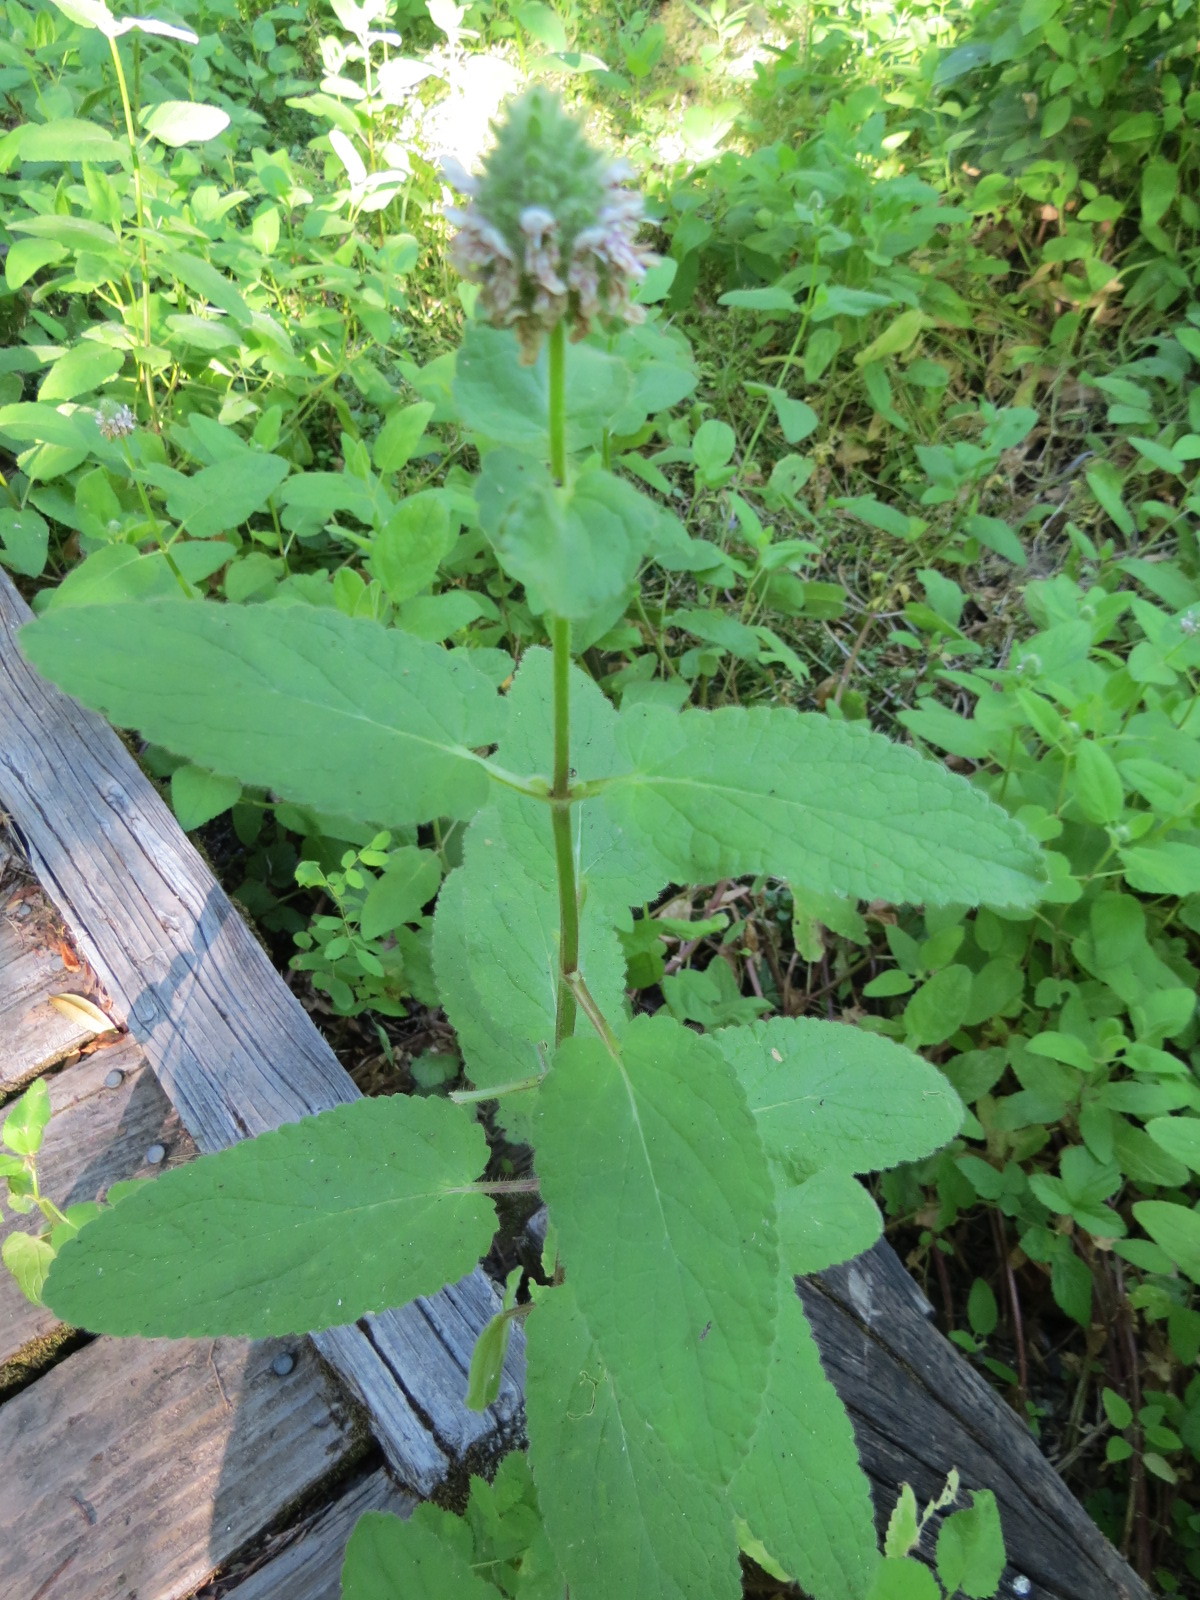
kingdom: Plantae
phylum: Tracheophyta
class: Magnoliopsida
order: Lamiales
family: Lamiaceae
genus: Stachys
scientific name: Stachys pycnantha
